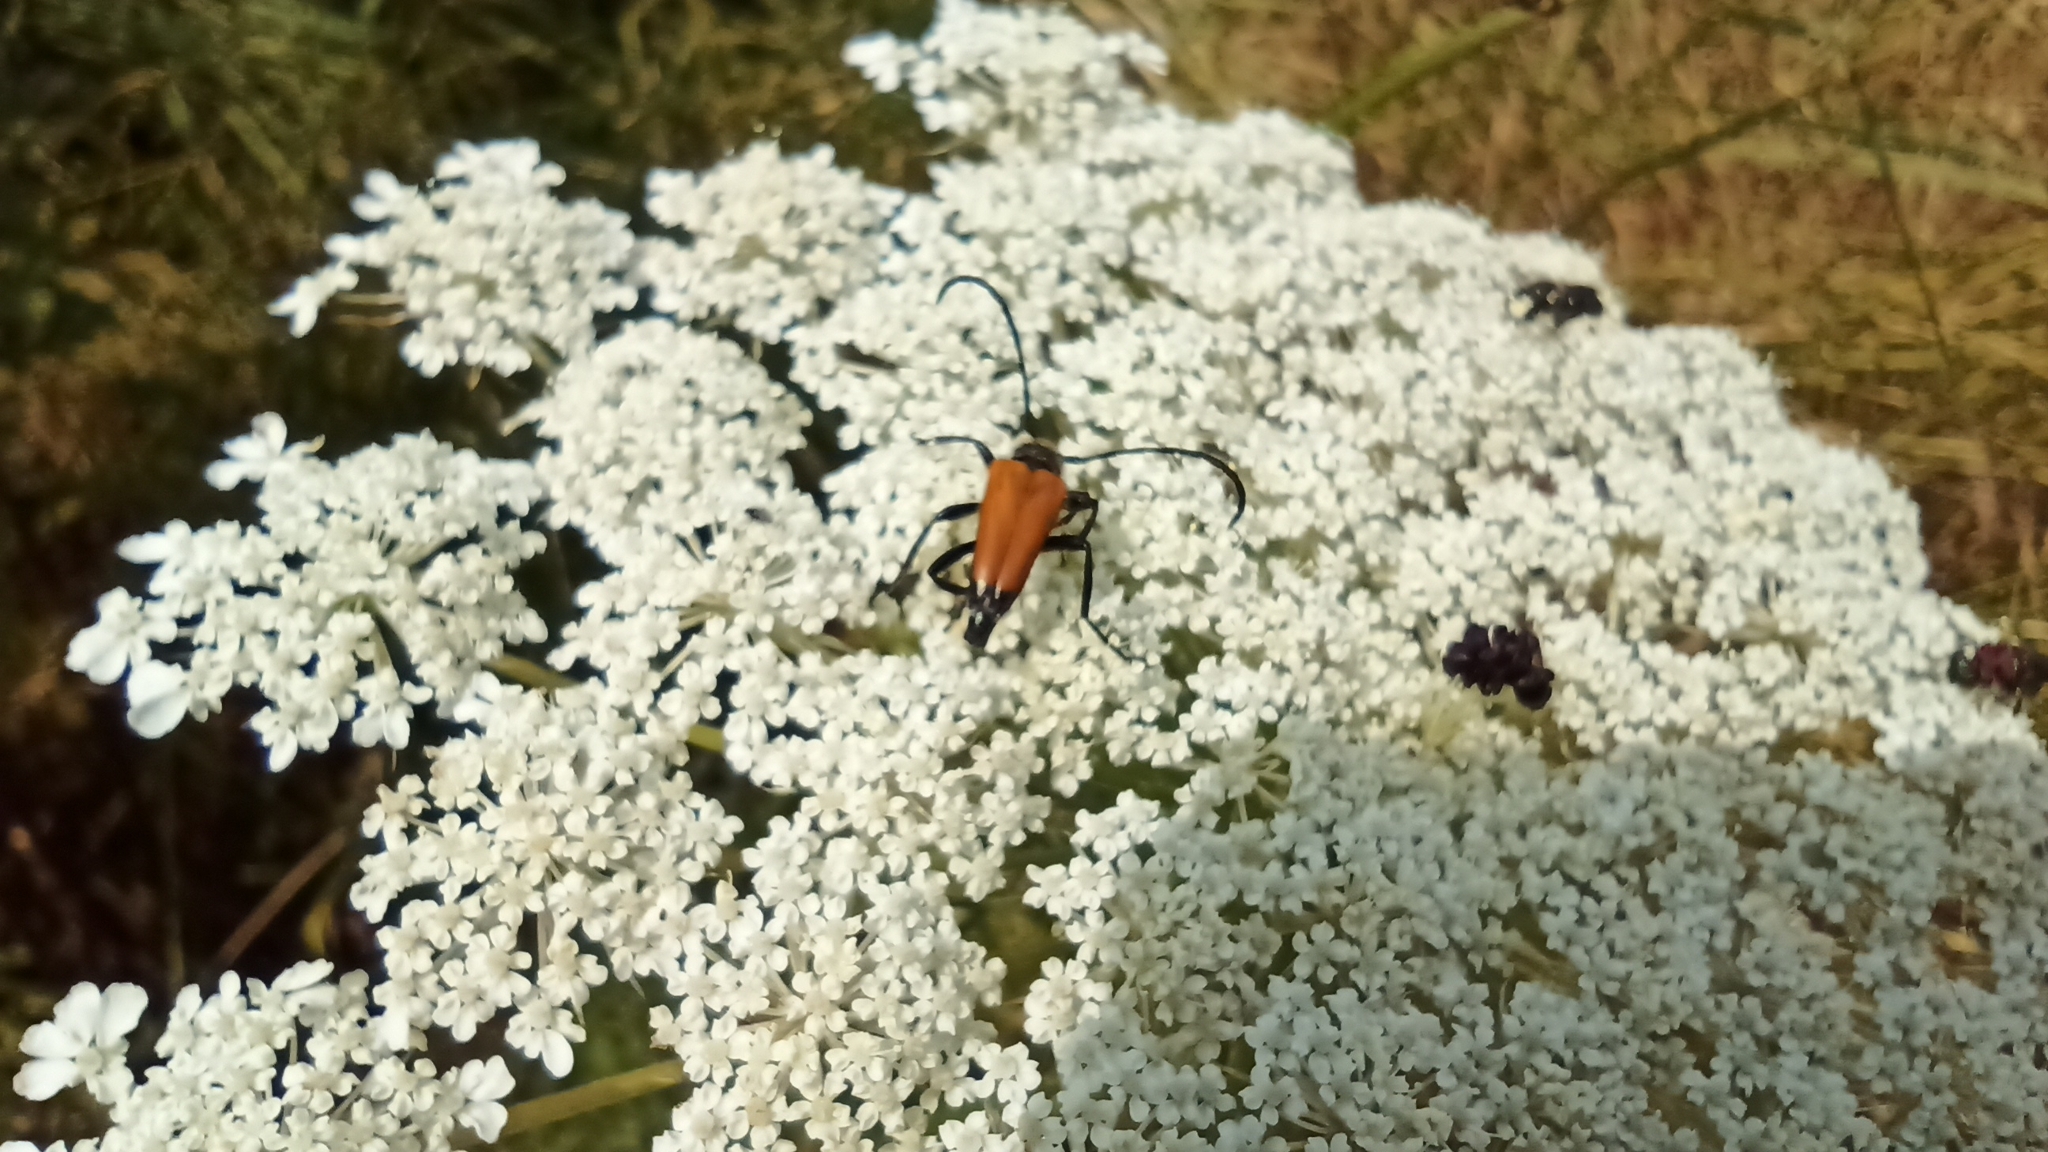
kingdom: Animalia
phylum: Arthropoda
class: Insecta
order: Coleoptera
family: Cerambycidae
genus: Paracorymbia
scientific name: Paracorymbia fulva
